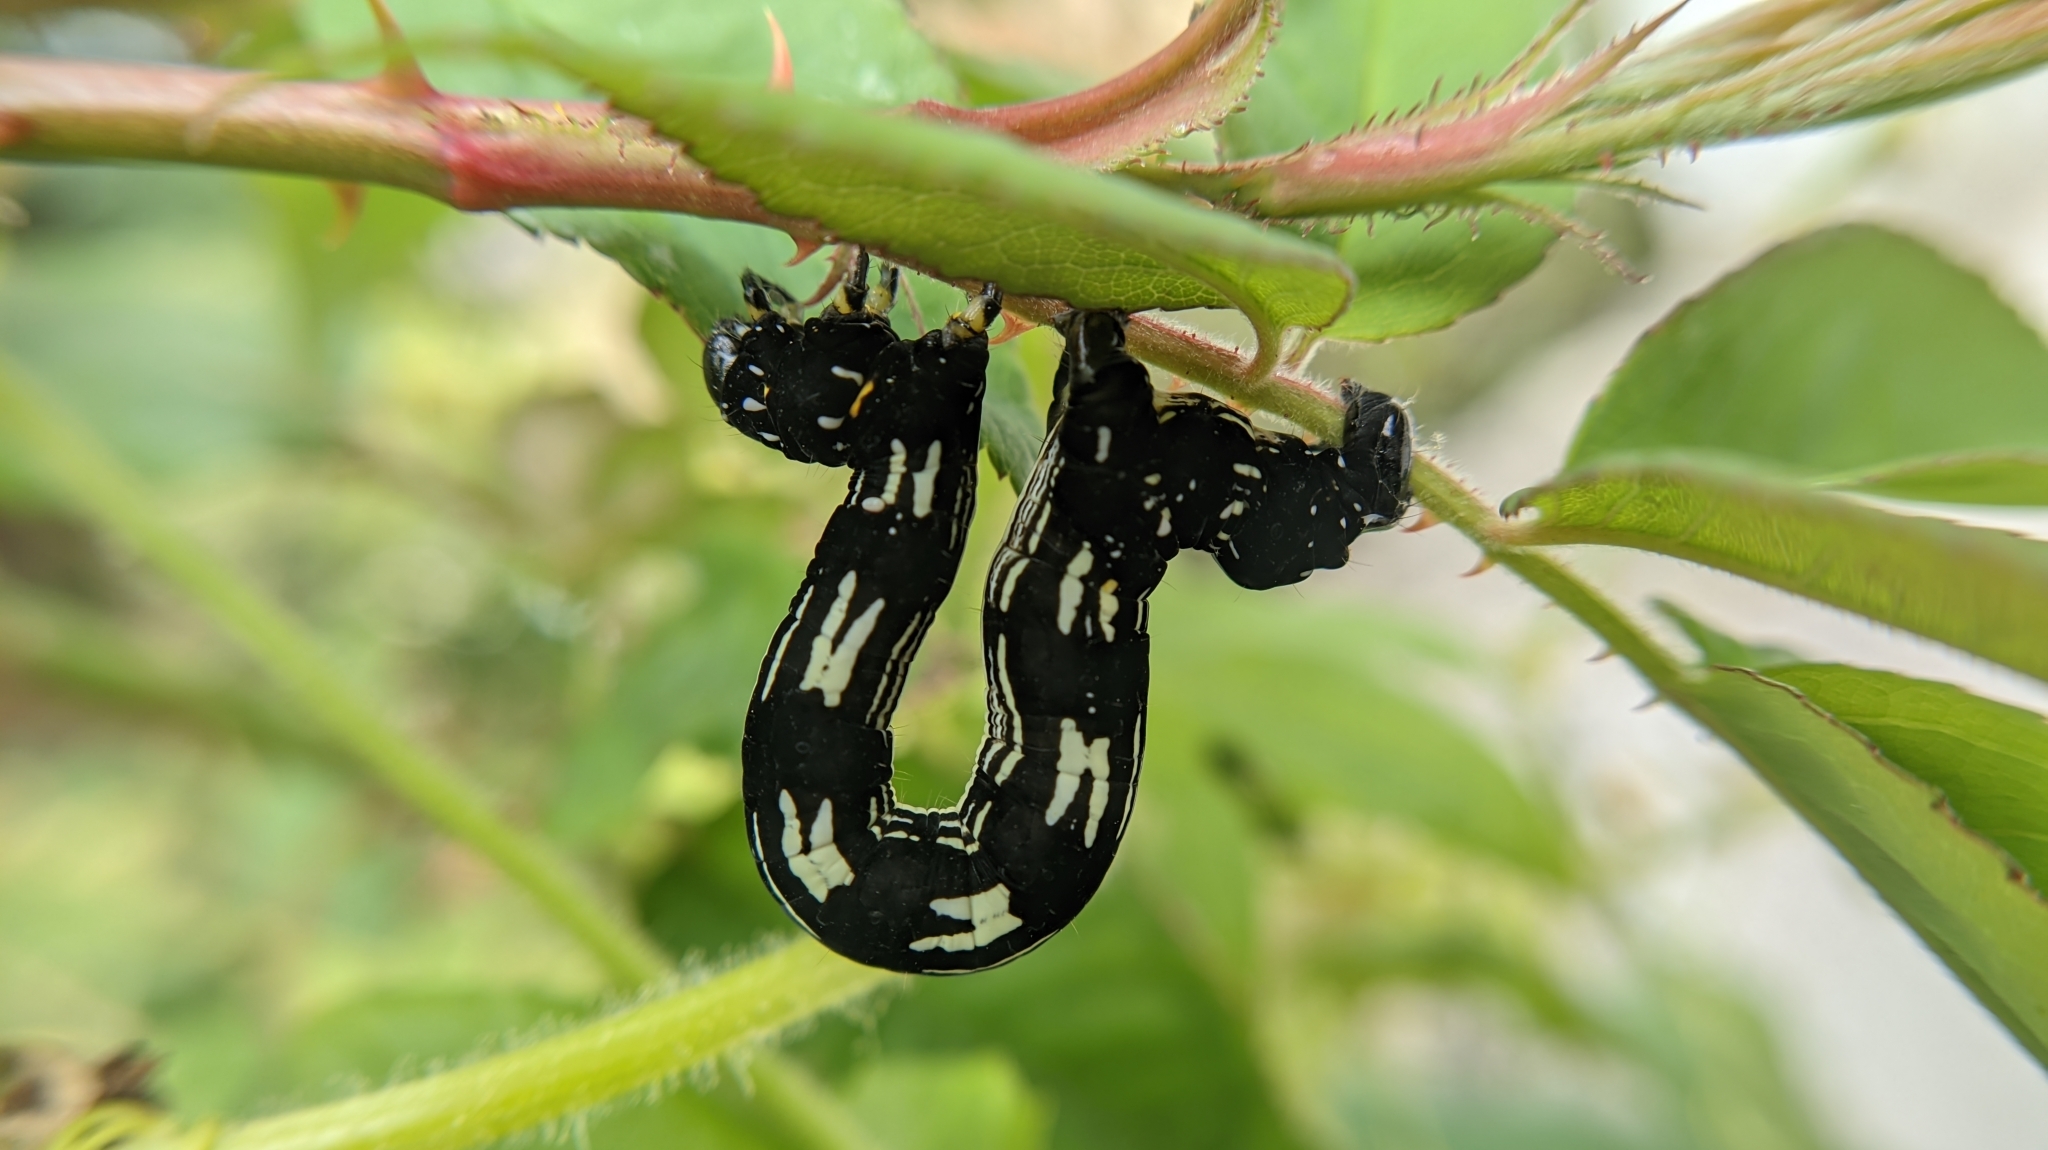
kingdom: Animalia
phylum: Arthropoda
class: Insecta
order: Lepidoptera
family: Geometridae
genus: Acronyctodes
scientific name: Acronyctodes mexicanaria
